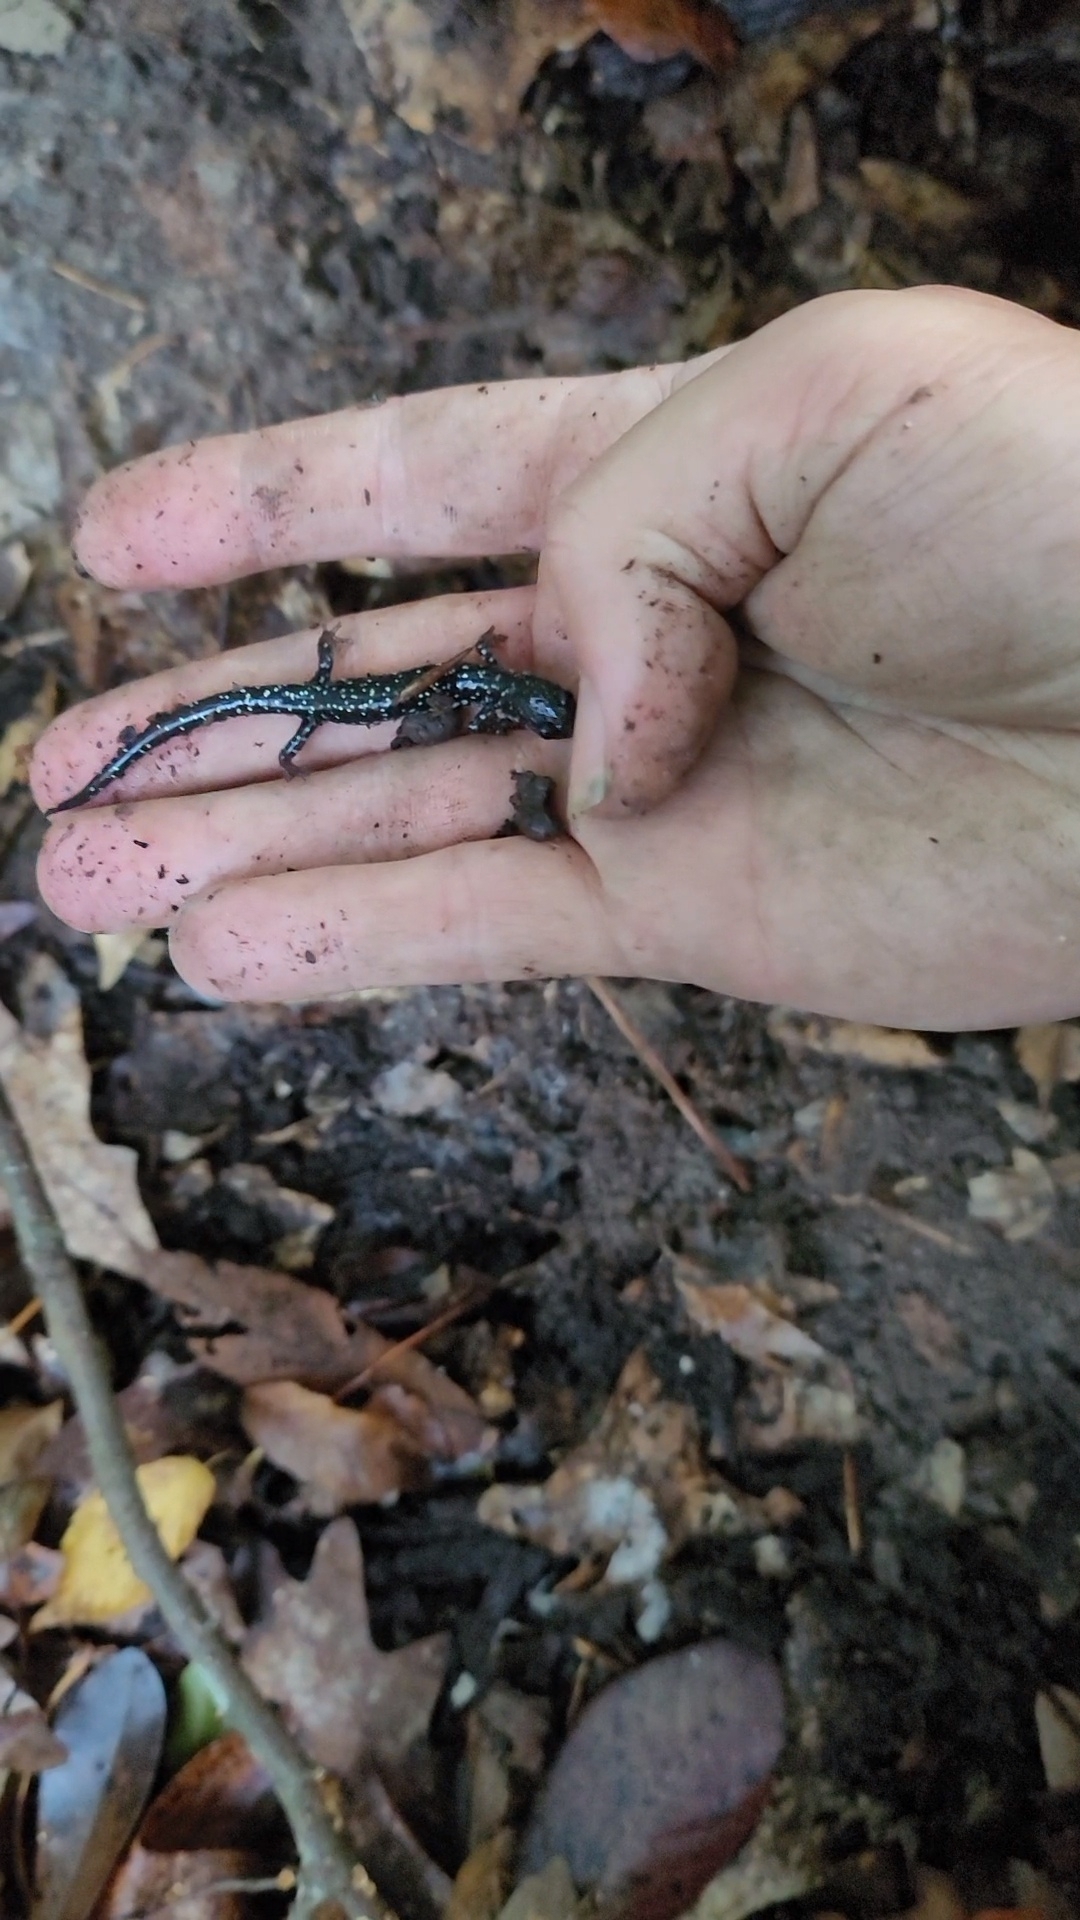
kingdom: Animalia
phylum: Chordata
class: Amphibia
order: Caudata
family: Plethodontidae
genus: Plethodon
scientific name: Plethodon glutinosus
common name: Northern slimy salamander
